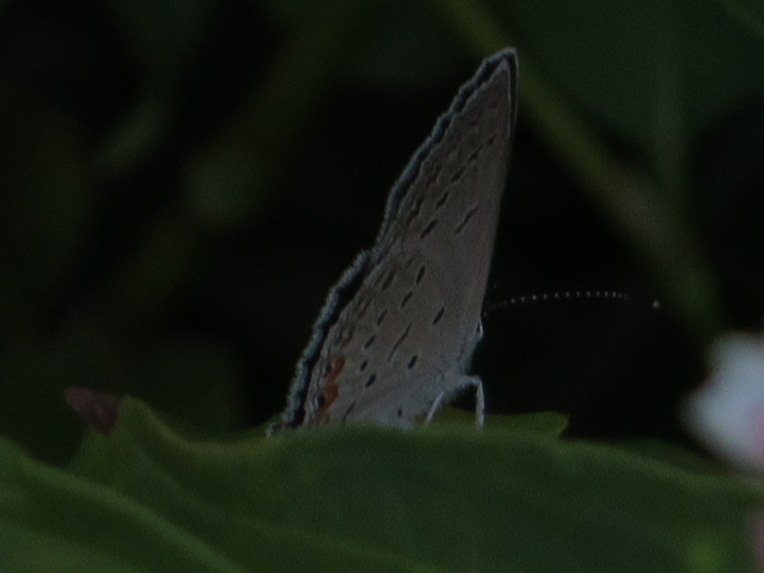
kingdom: Animalia
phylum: Arthropoda
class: Insecta
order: Lepidoptera
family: Lycaenidae
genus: Elkalyce
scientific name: Elkalyce comyntas
